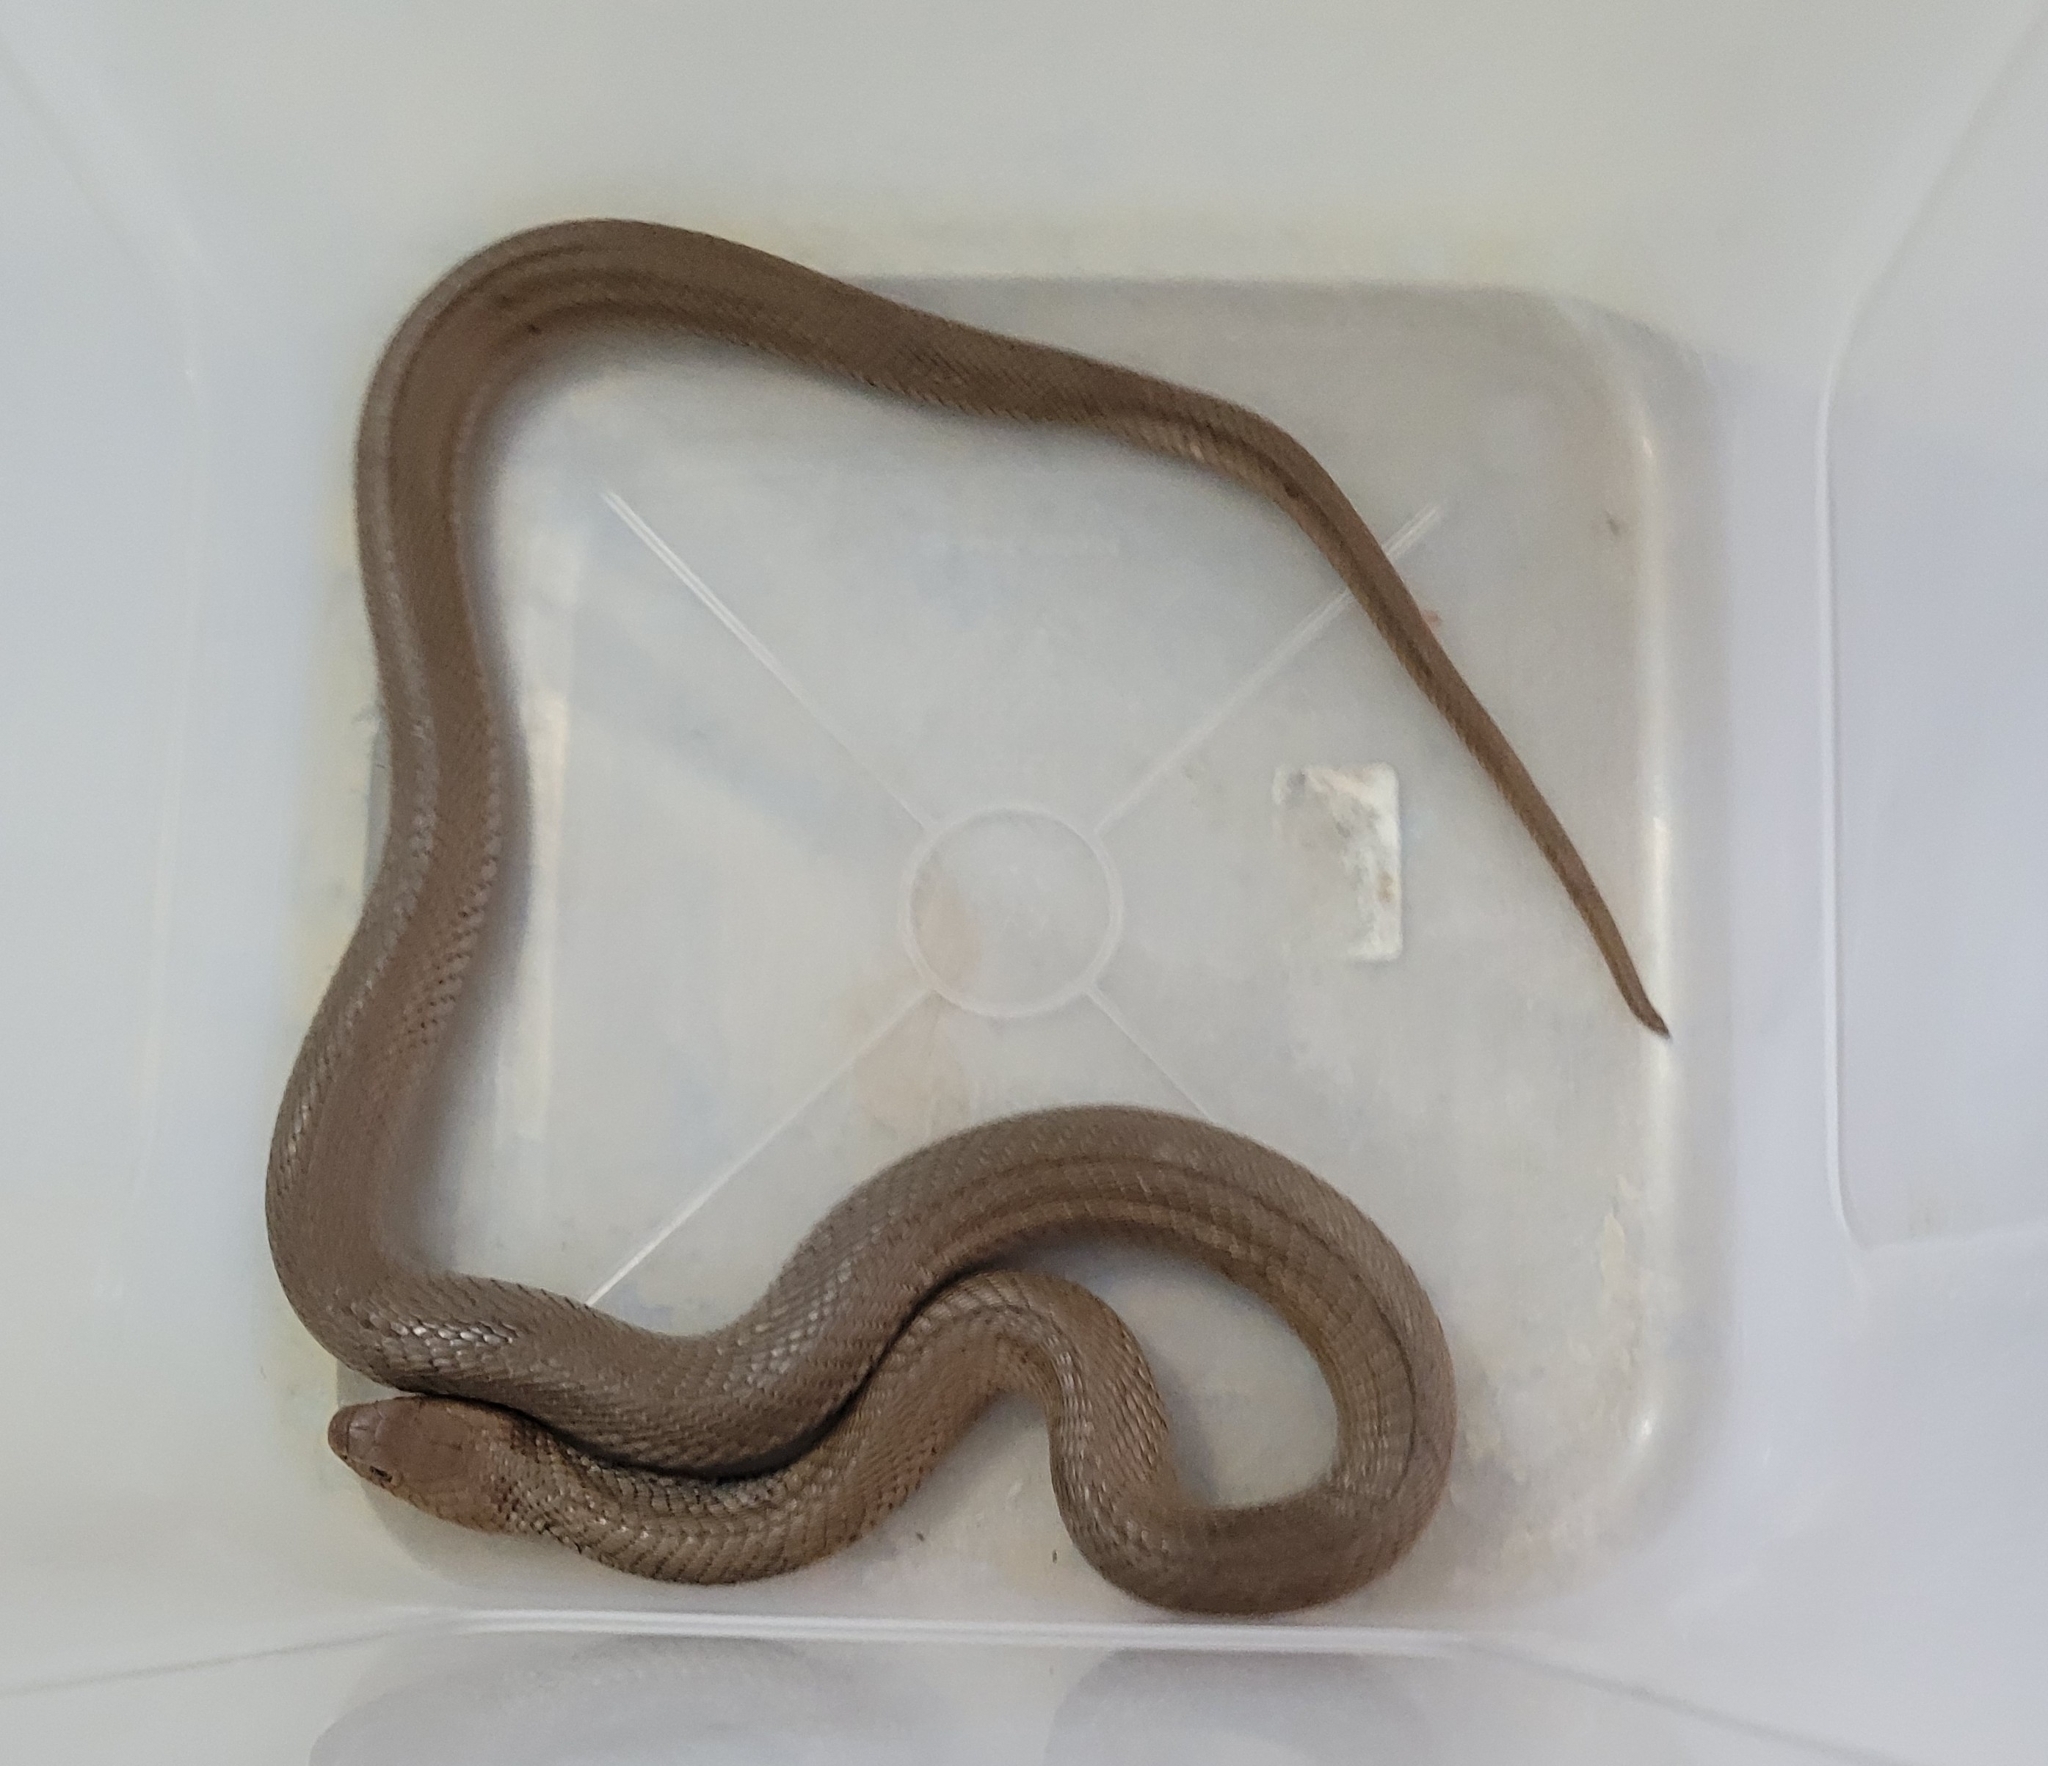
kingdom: Animalia
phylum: Chordata
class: Squamata
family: Elapidae
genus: Naja
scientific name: Naja mossambica
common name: Mozambique spitting cobra
